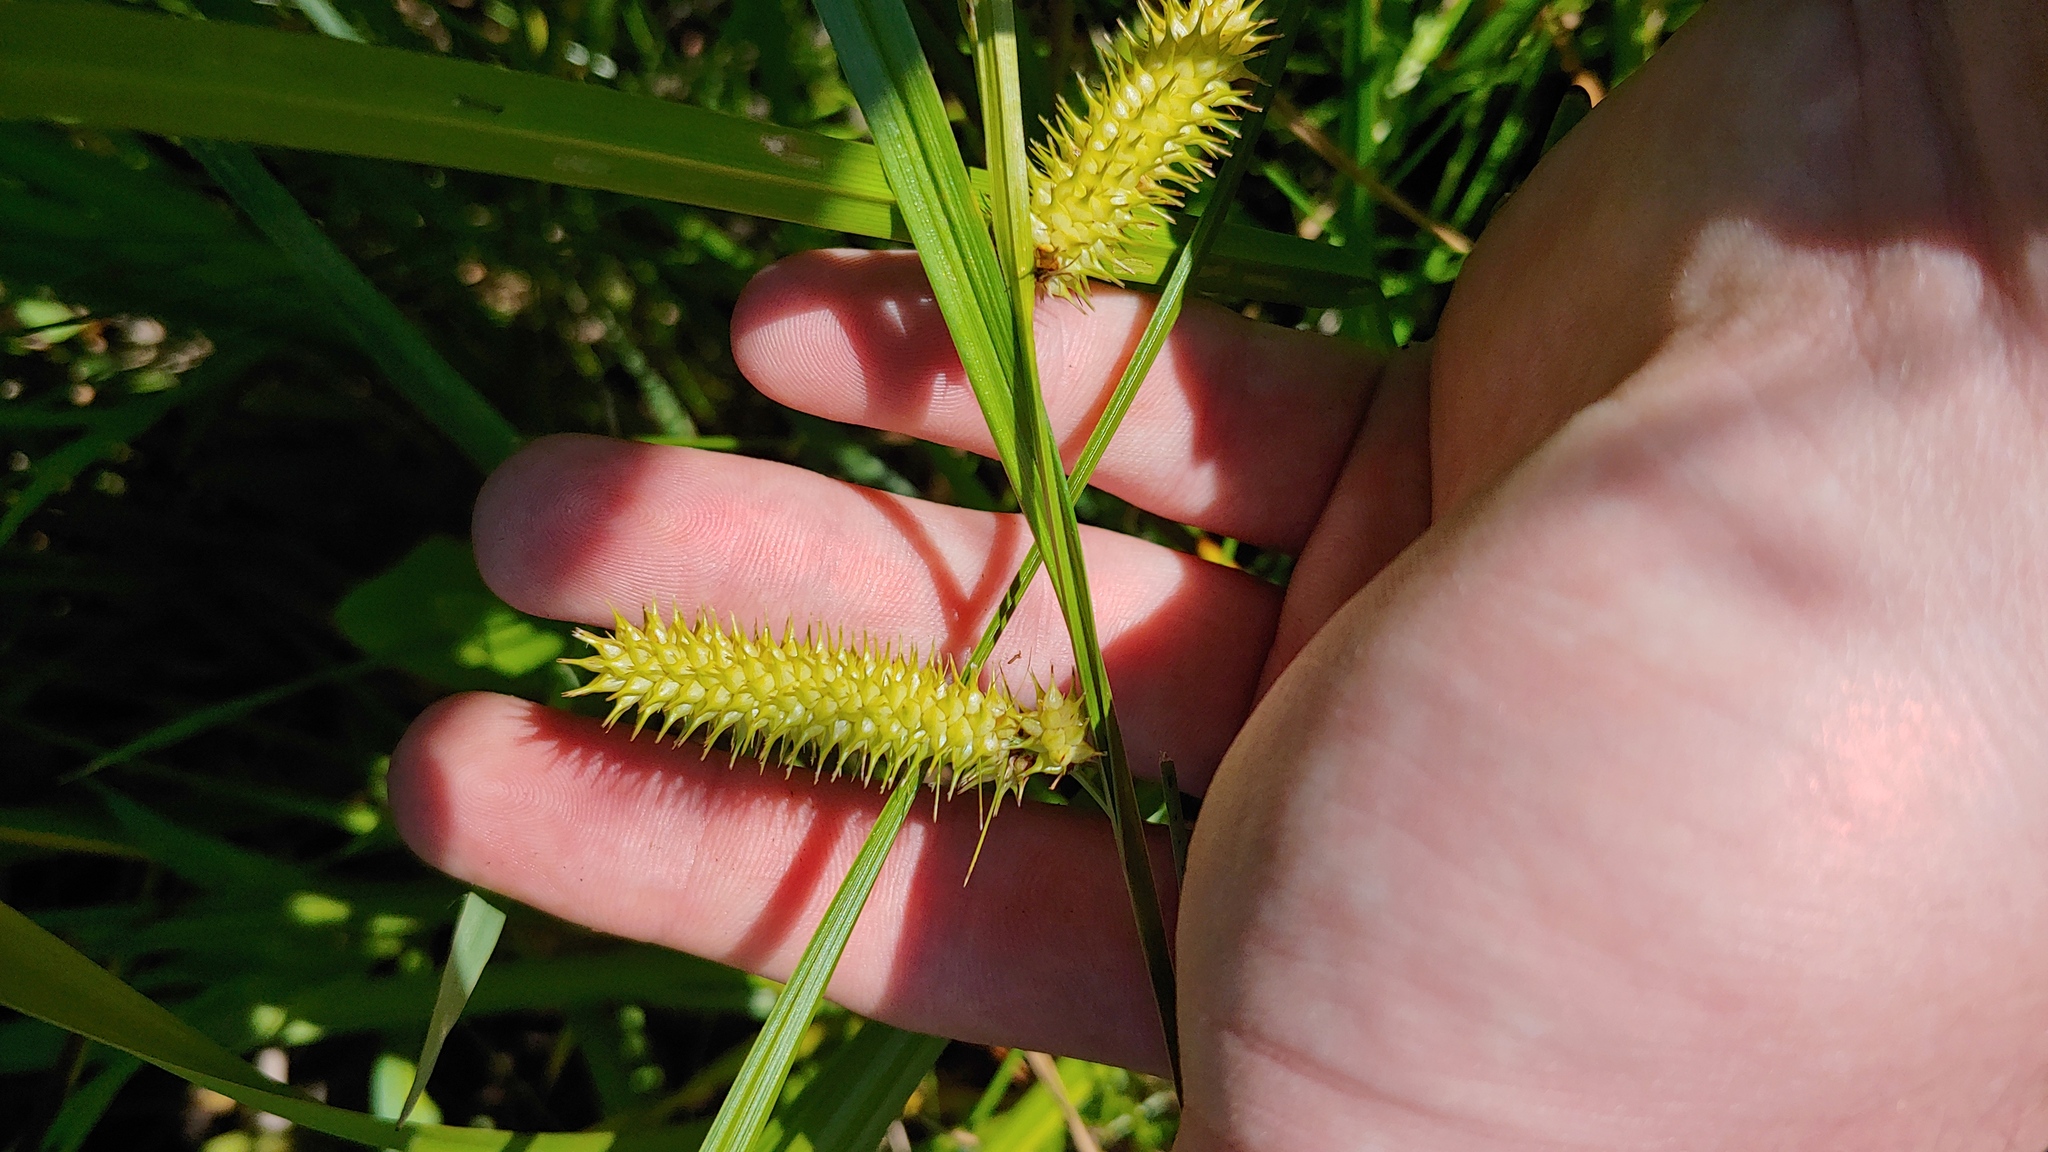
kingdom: Plantae
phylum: Tracheophyta
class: Liliopsida
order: Poales
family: Cyperaceae
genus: Carex
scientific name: Carex hystericina
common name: Bottlebrush sedge
